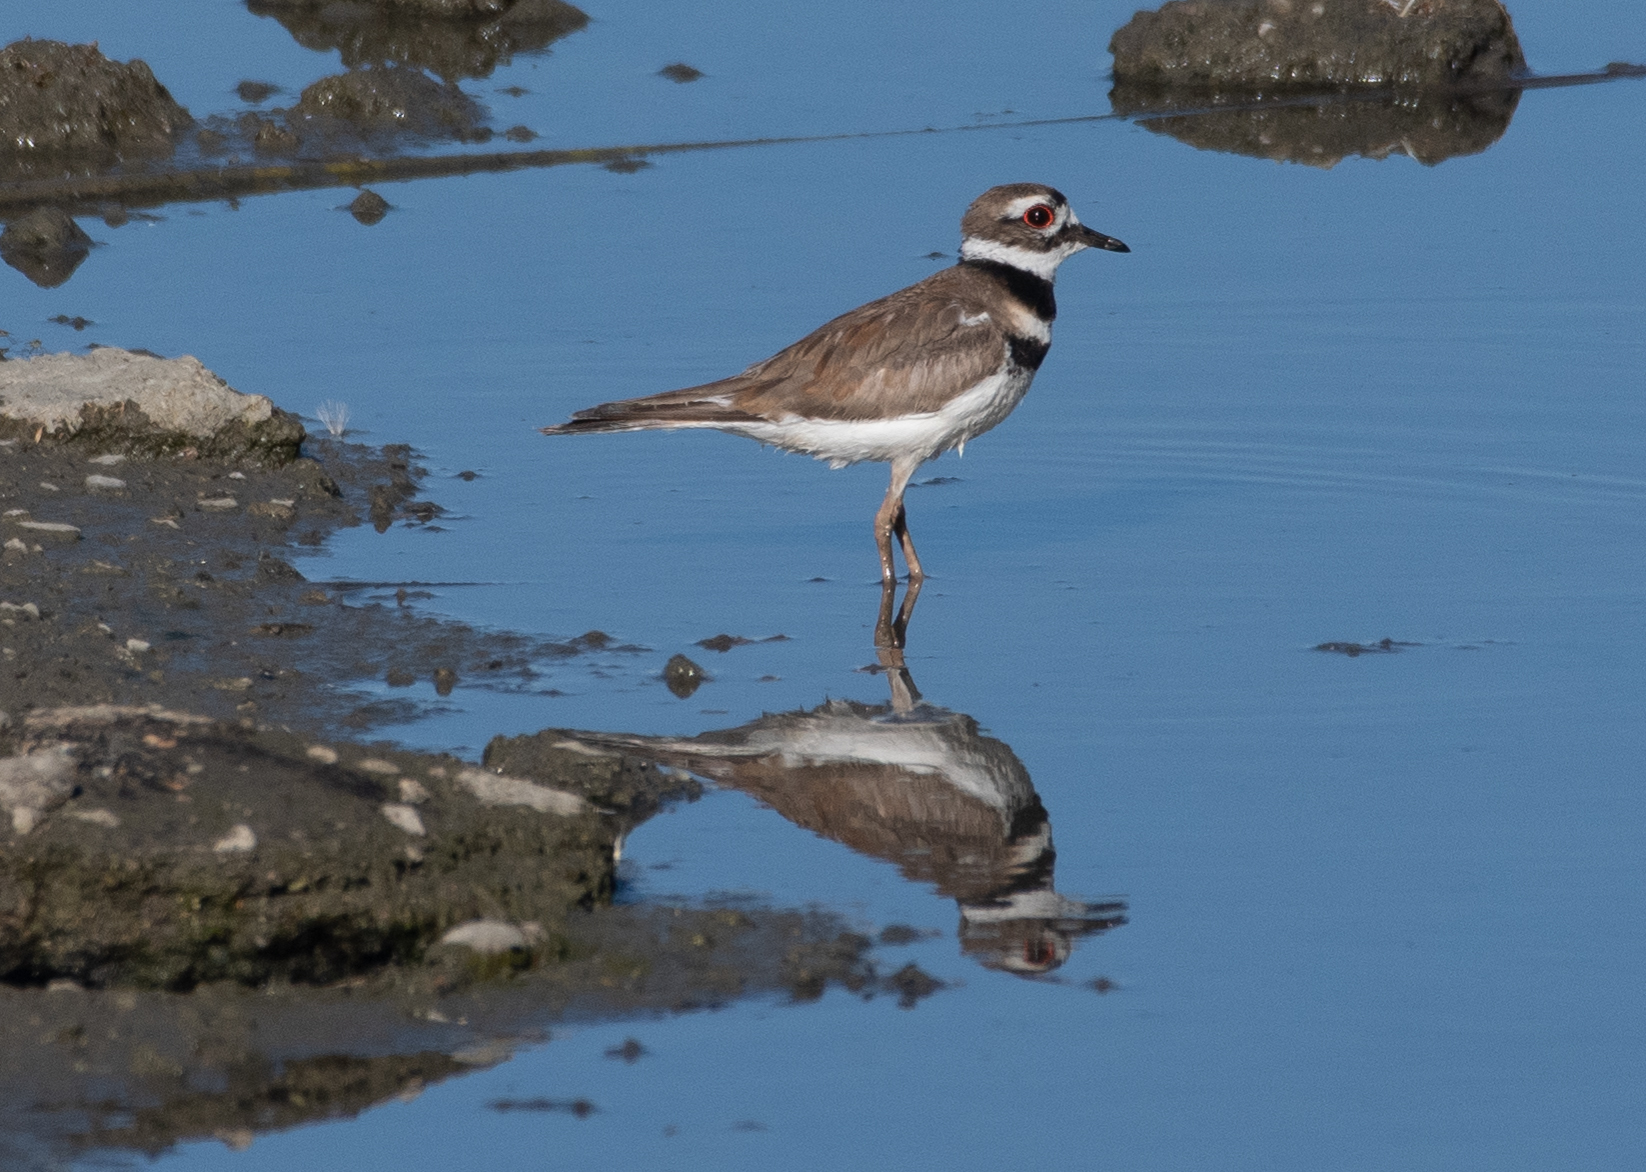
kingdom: Animalia
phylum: Chordata
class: Aves
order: Charadriiformes
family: Charadriidae
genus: Charadrius
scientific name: Charadrius vociferus
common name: Killdeer
